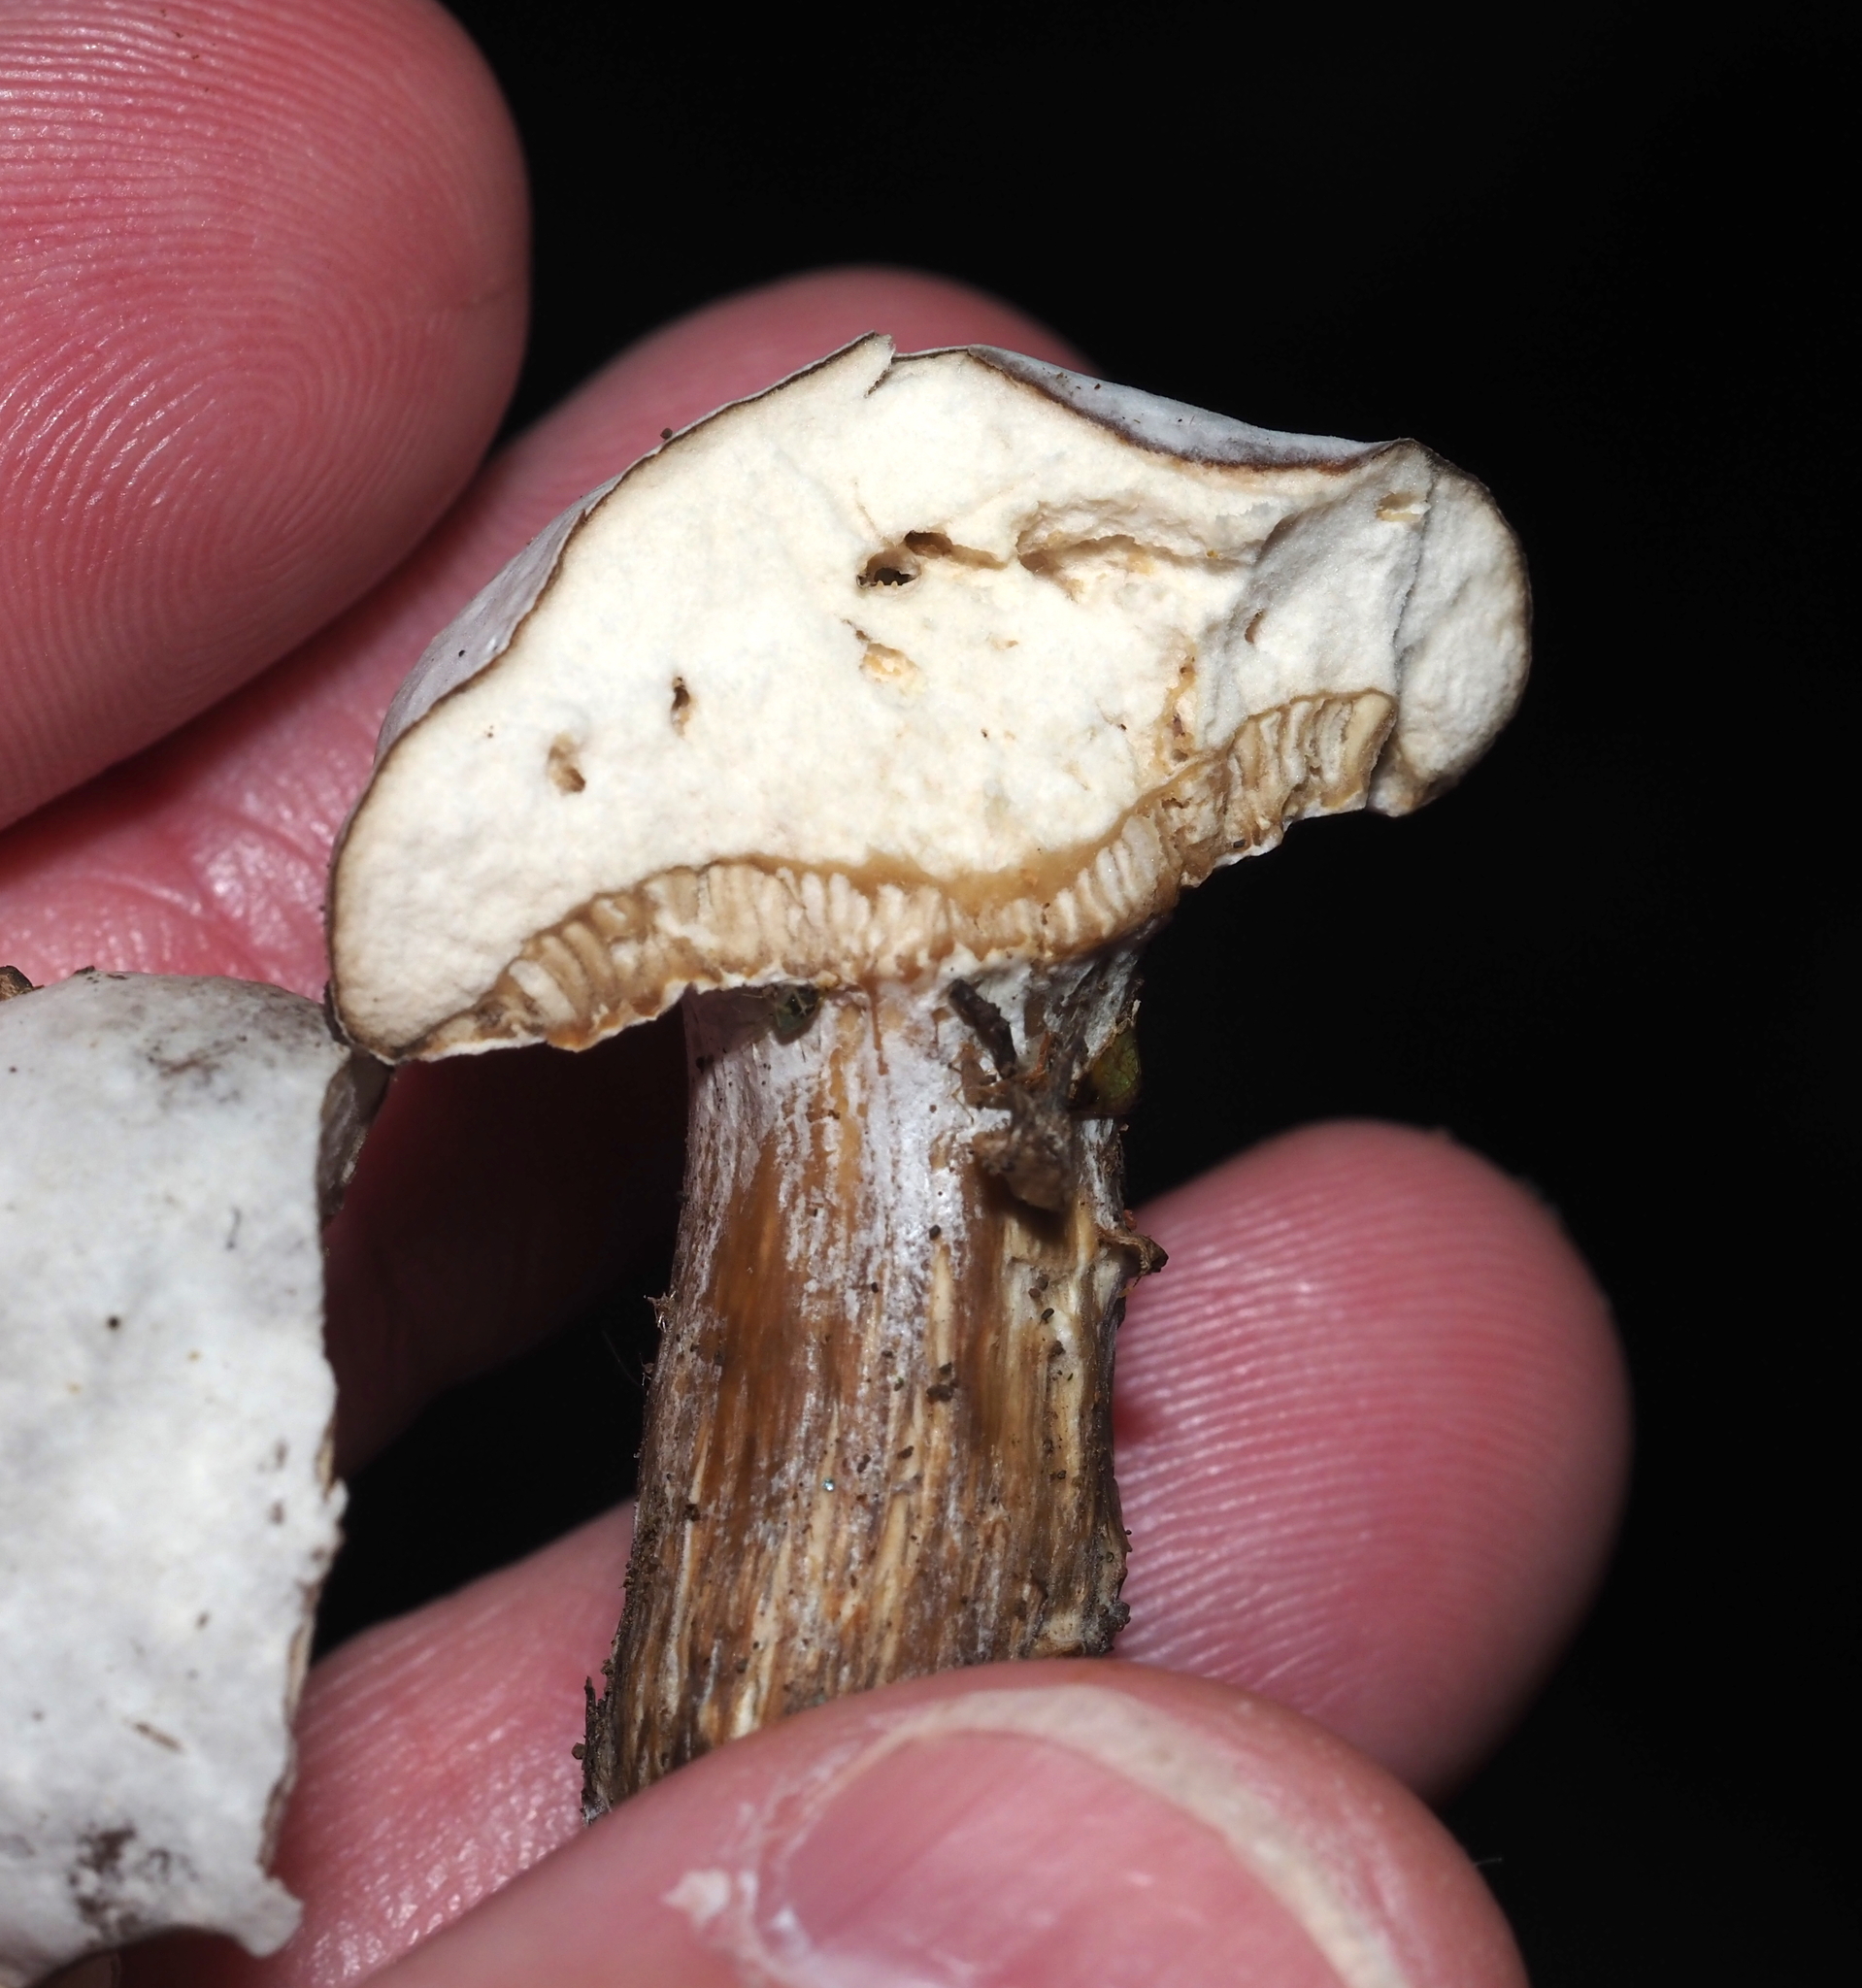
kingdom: Fungi
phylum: Ascomycota
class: Sordariomycetes
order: Hypocreales
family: Hypocreaceae
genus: Hypomyces
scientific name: Hypomyces chrysospermus
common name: Bolete mould
